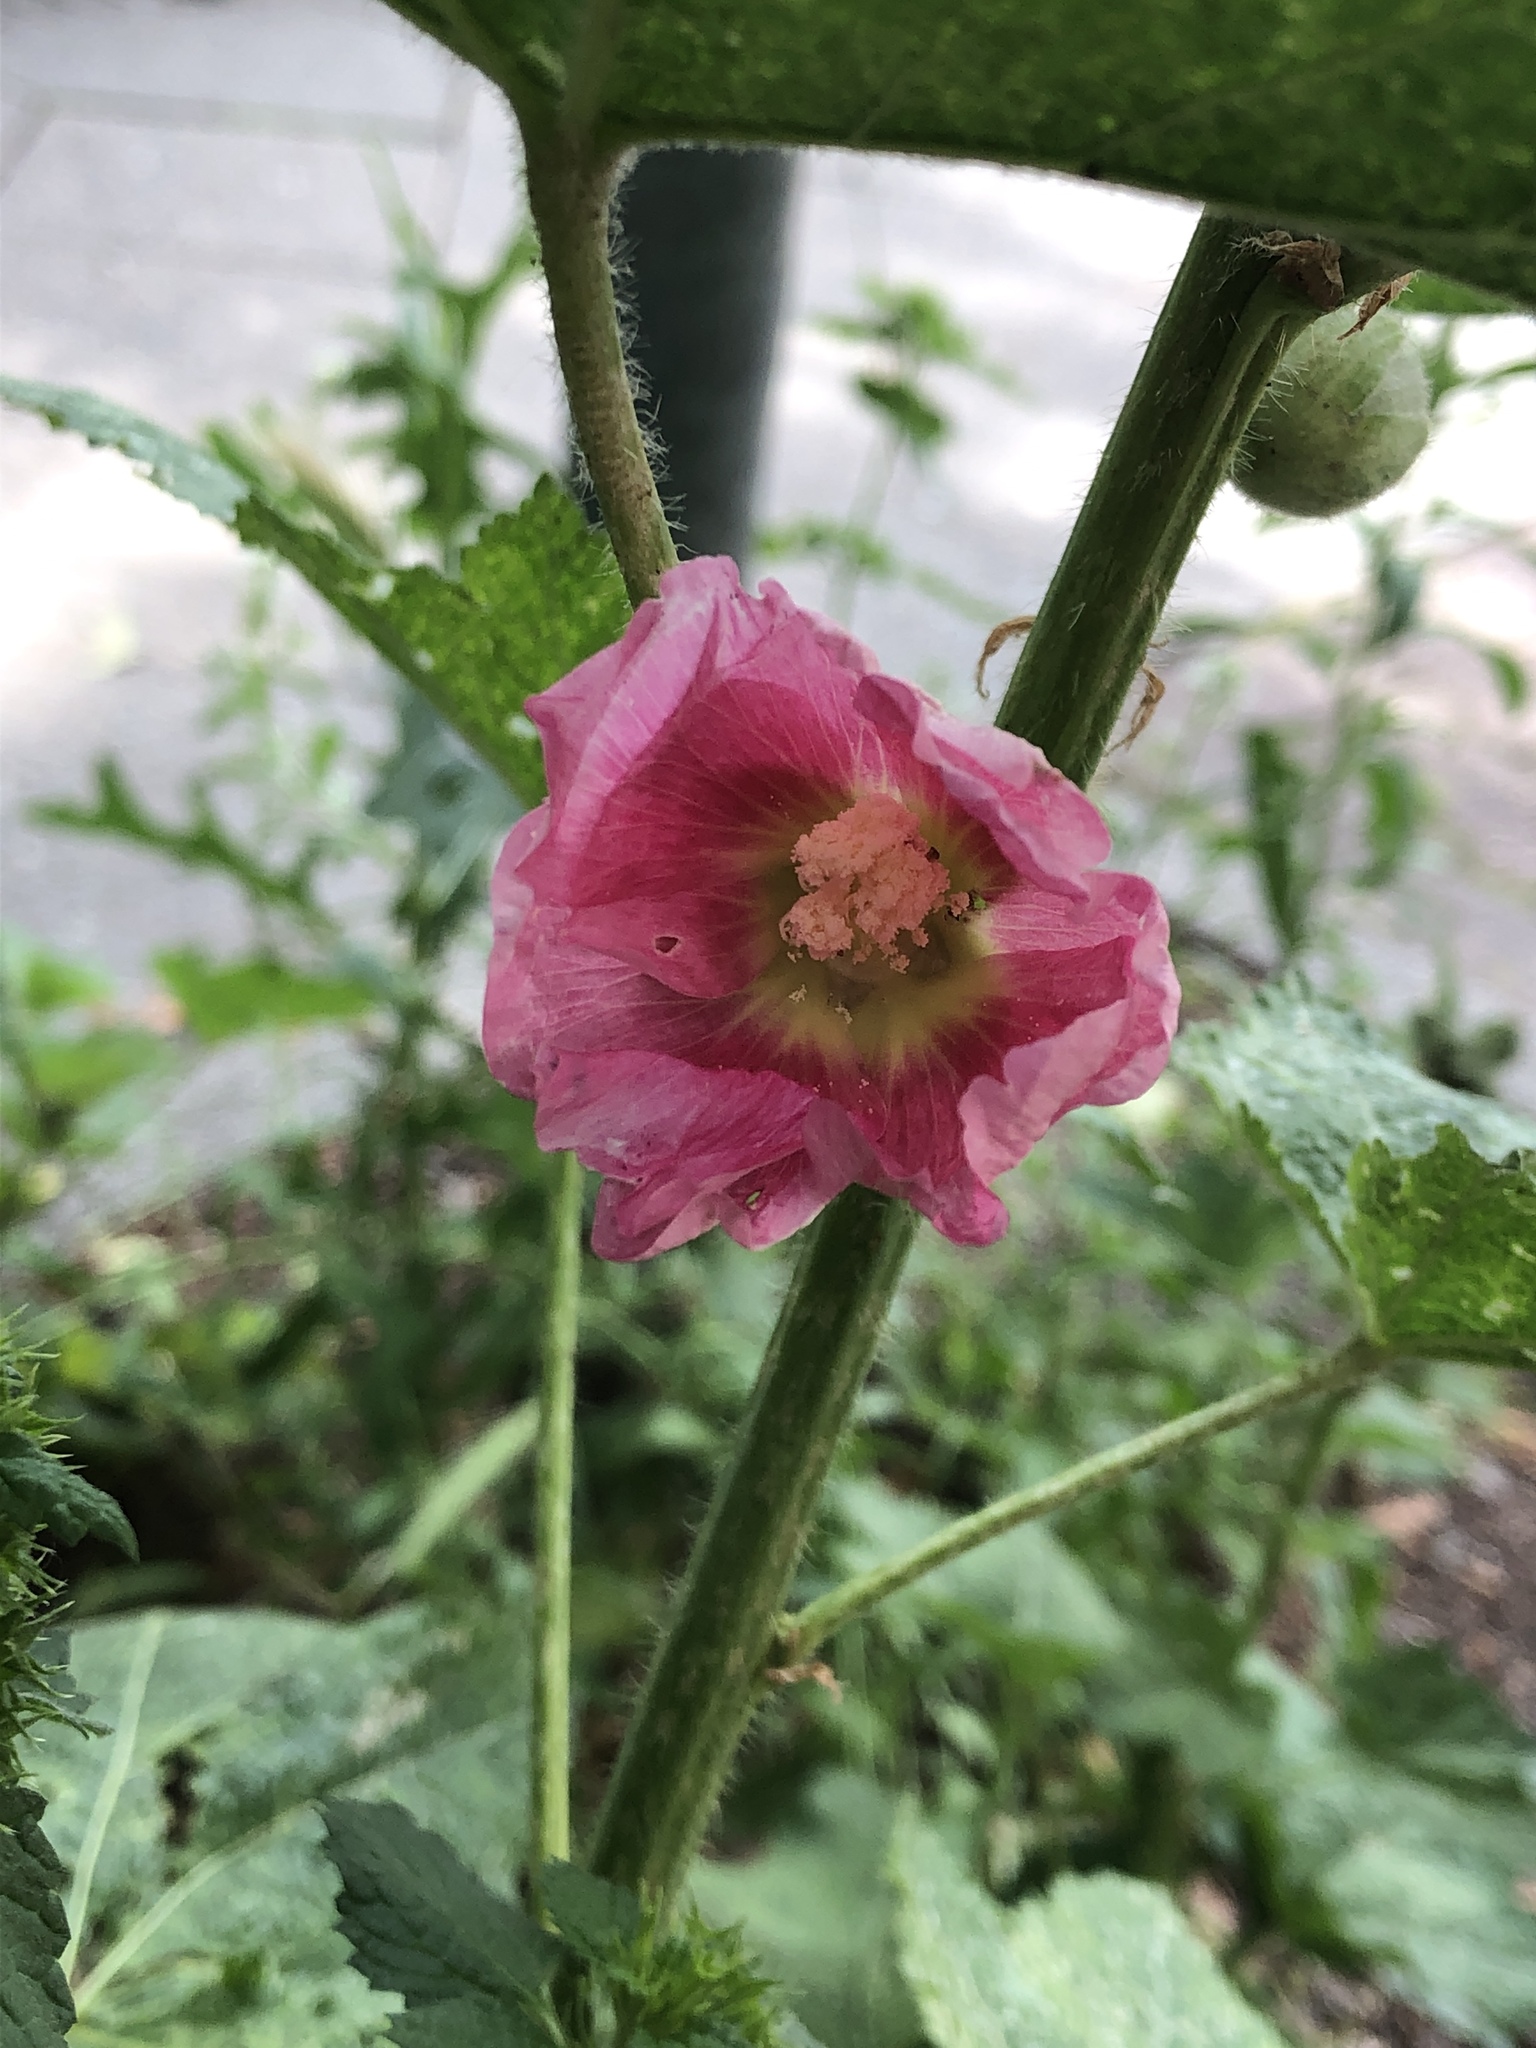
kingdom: Plantae
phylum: Tracheophyta
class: Magnoliopsida
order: Malvales
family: Malvaceae
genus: Alcea
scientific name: Alcea rosea
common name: Hollyhock
